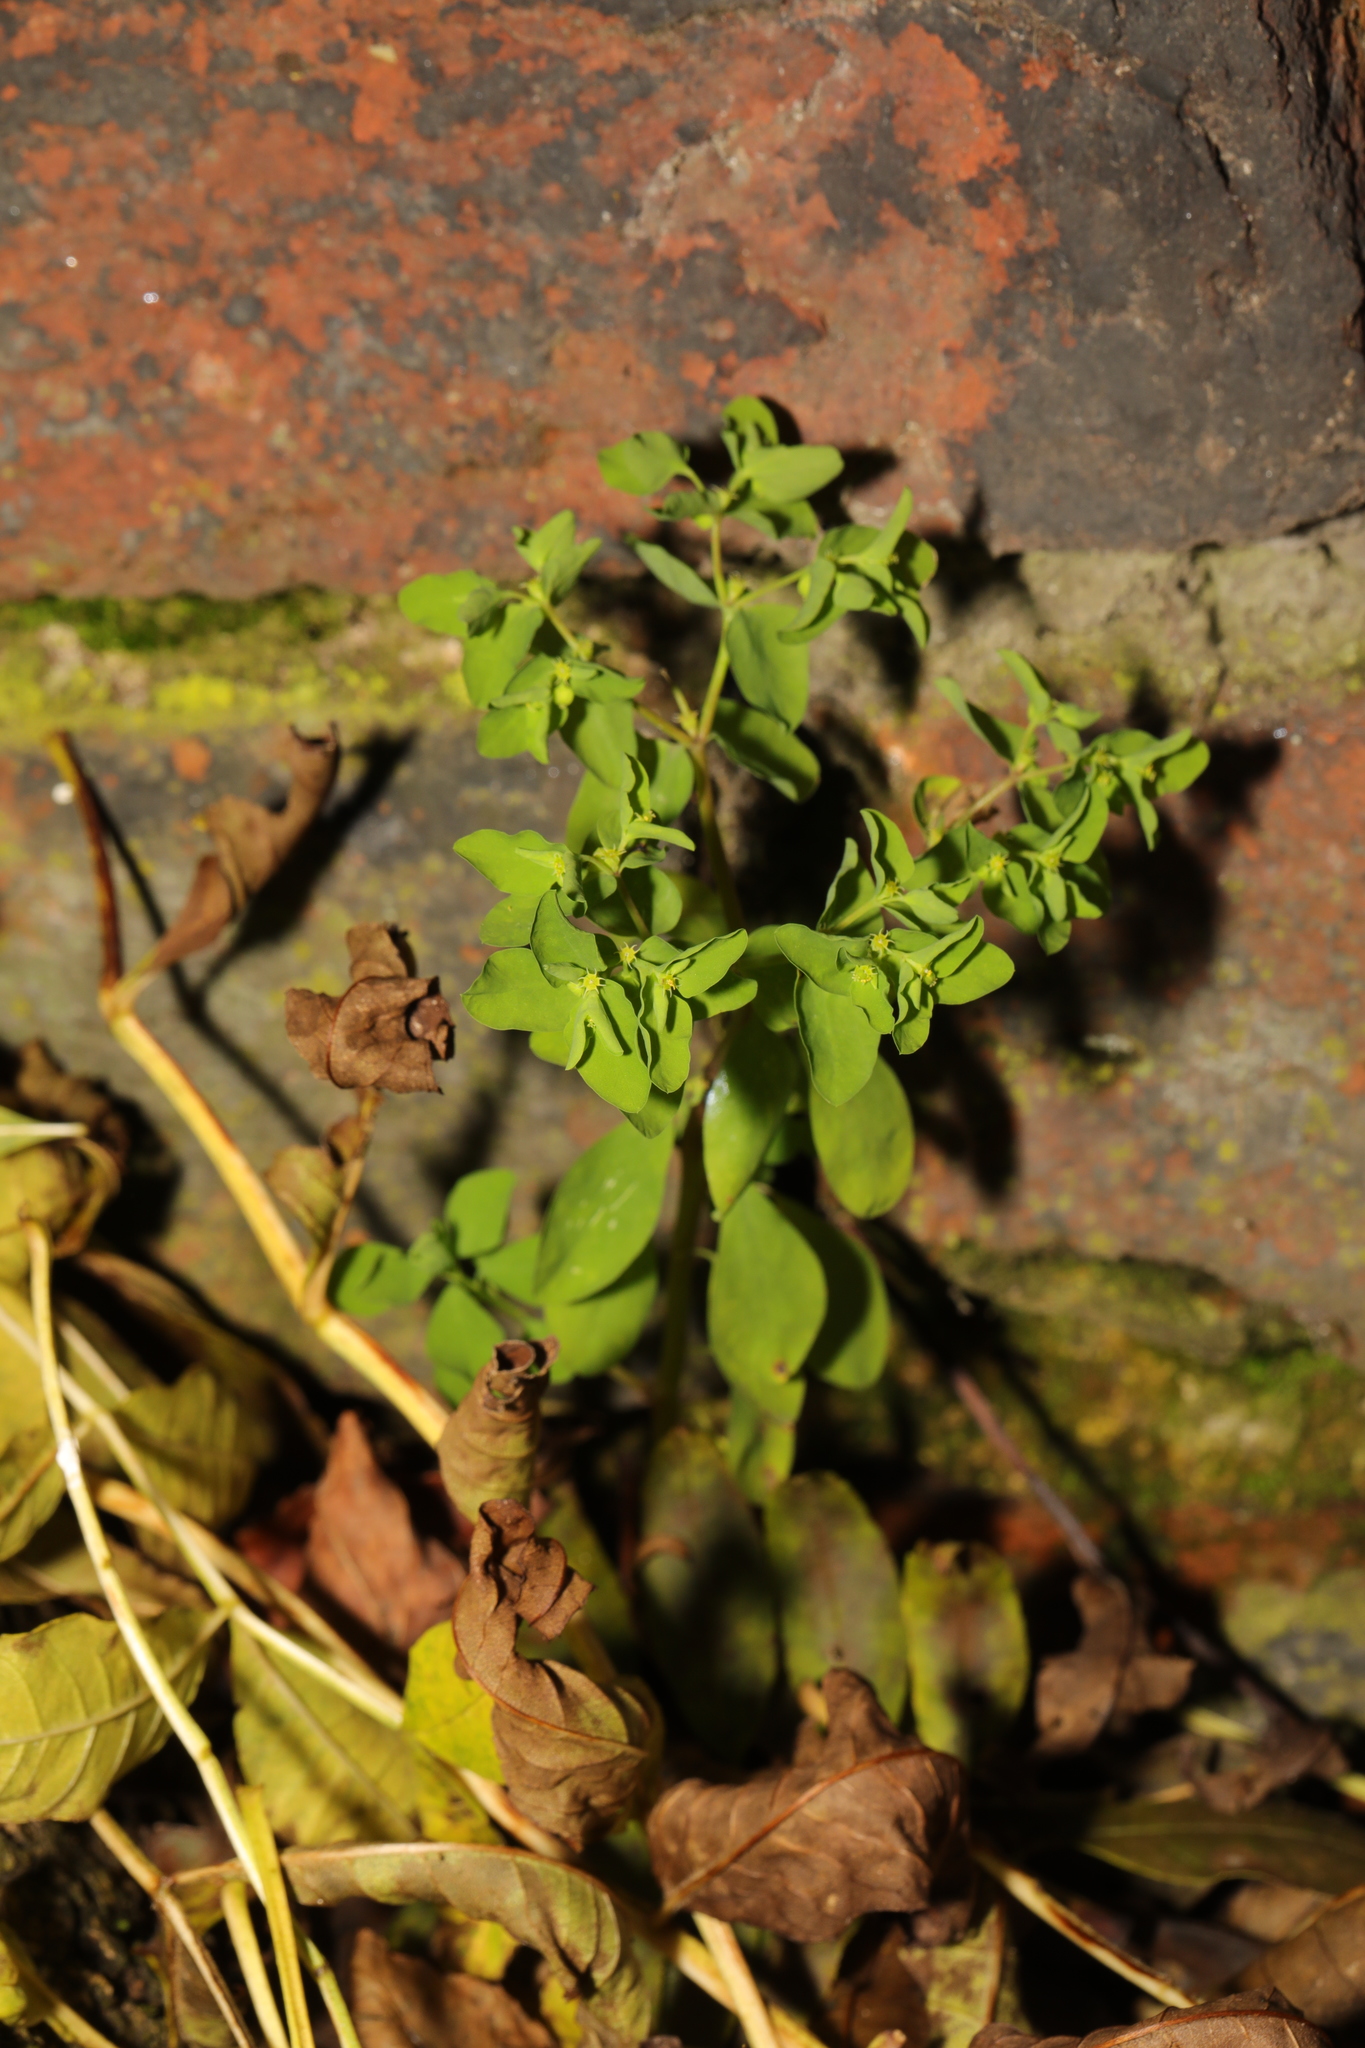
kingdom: Plantae
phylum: Tracheophyta
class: Magnoliopsida
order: Malpighiales
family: Euphorbiaceae
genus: Euphorbia
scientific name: Euphorbia peplus
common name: Petty spurge
